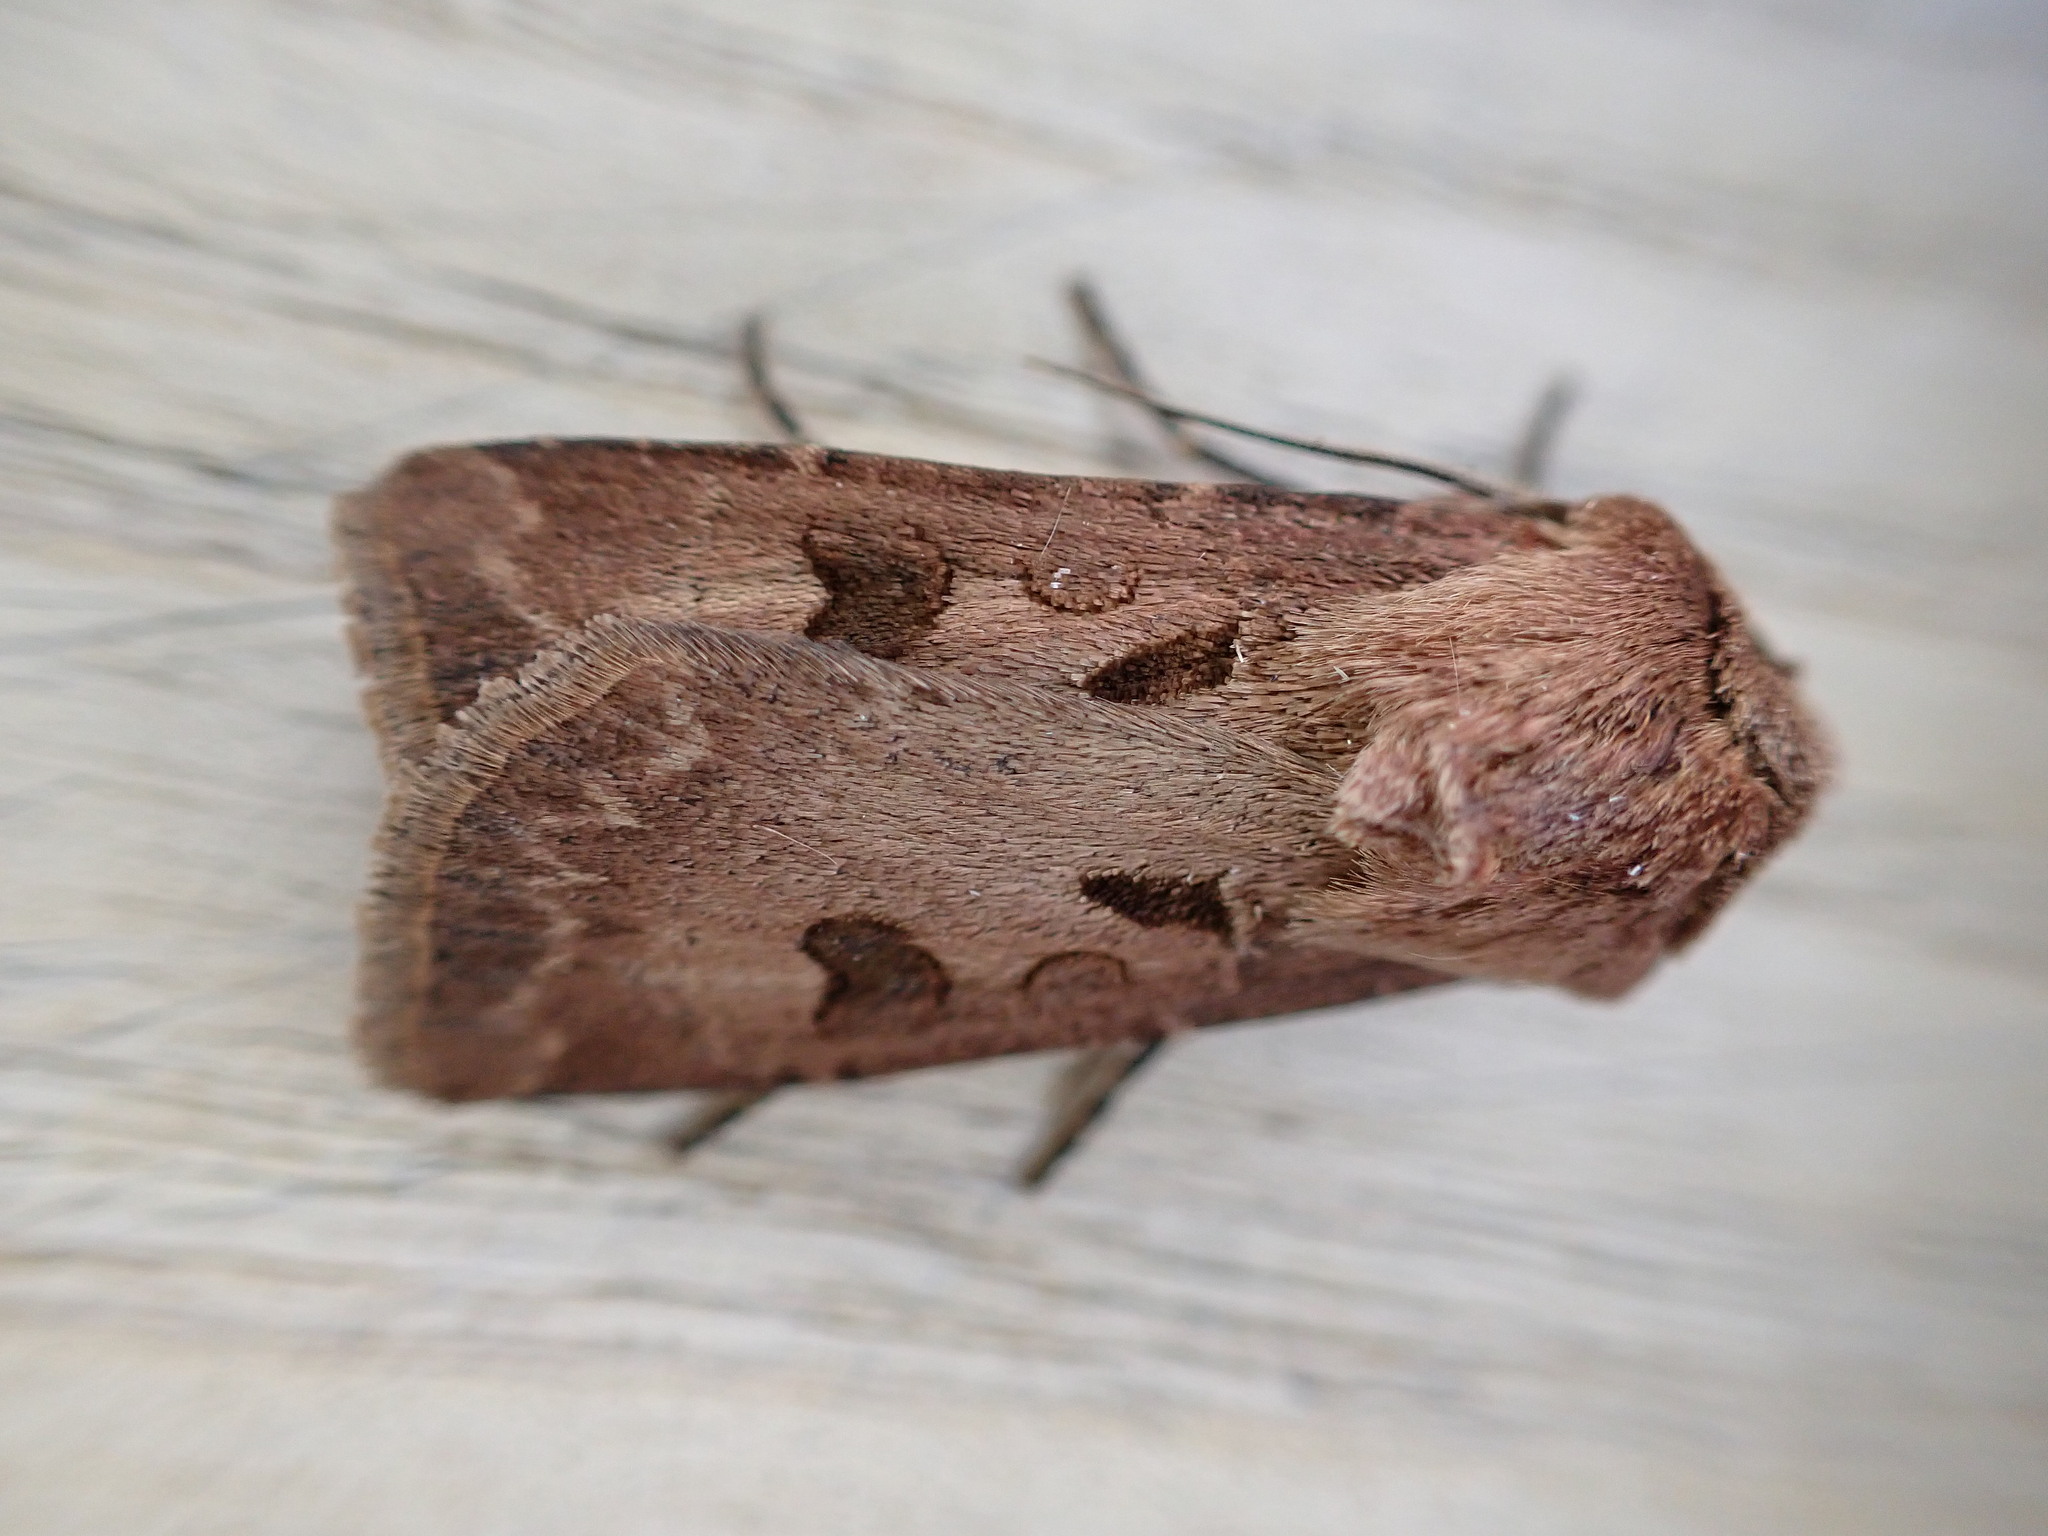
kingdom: Animalia
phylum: Arthropoda
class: Insecta
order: Lepidoptera
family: Noctuidae
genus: Agrotis
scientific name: Agrotis exclamationis
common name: Heart and dart
